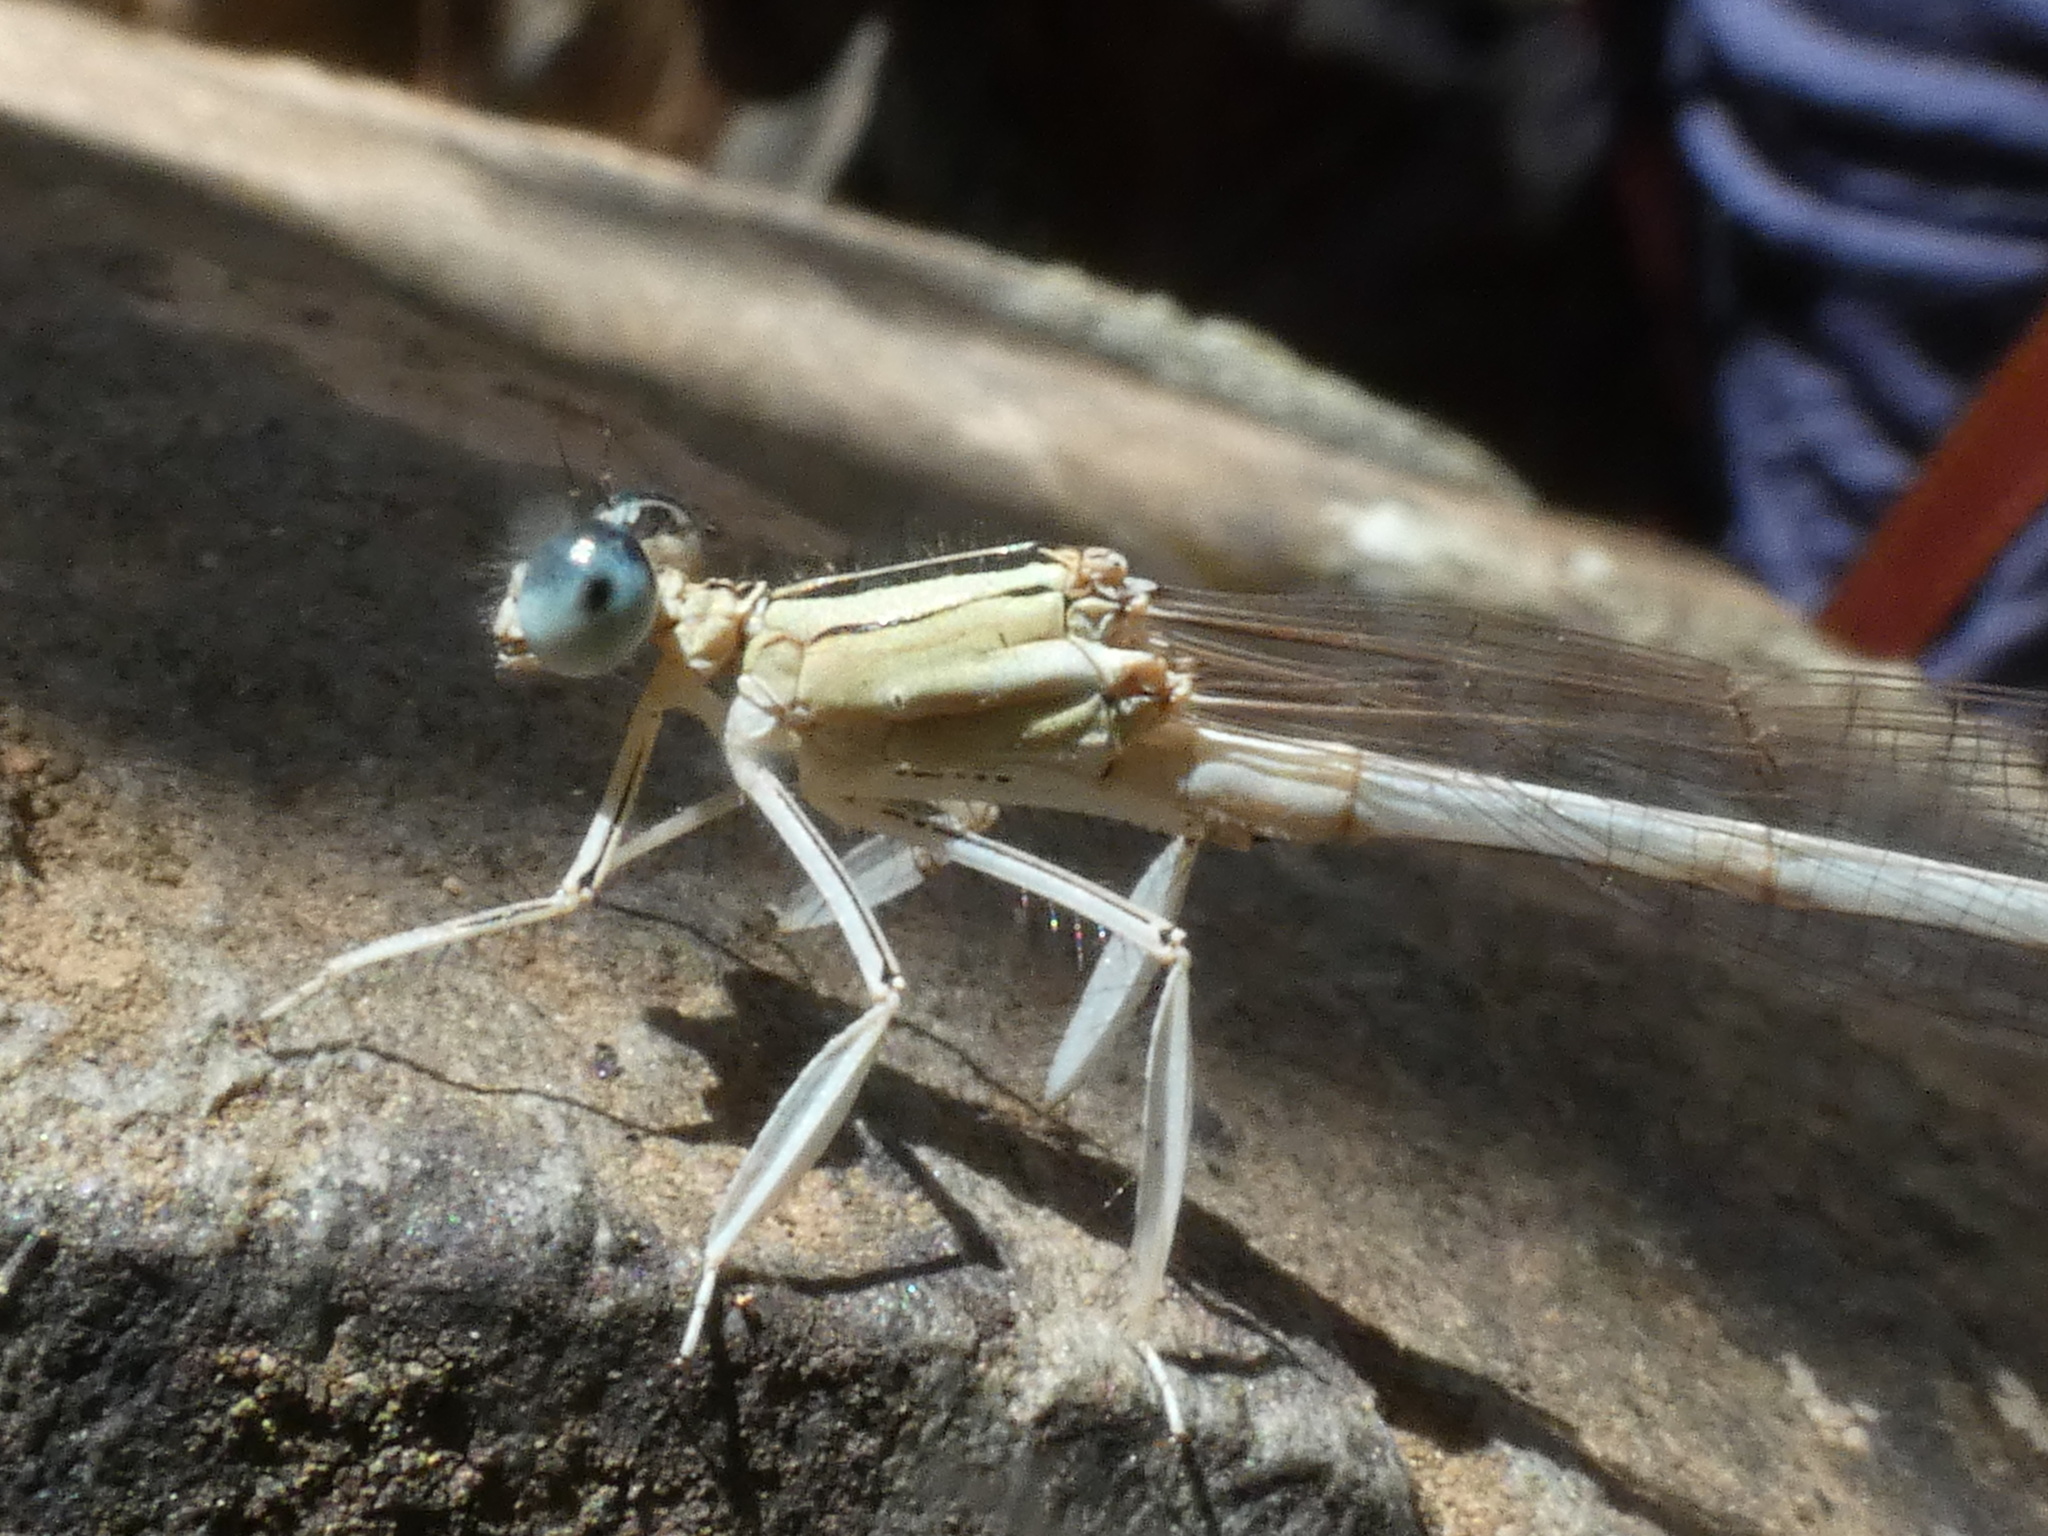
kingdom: Animalia
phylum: Arthropoda
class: Insecta
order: Odonata
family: Platycnemididae
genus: Platycnemis
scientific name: Platycnemis latipes
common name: White featherleg
